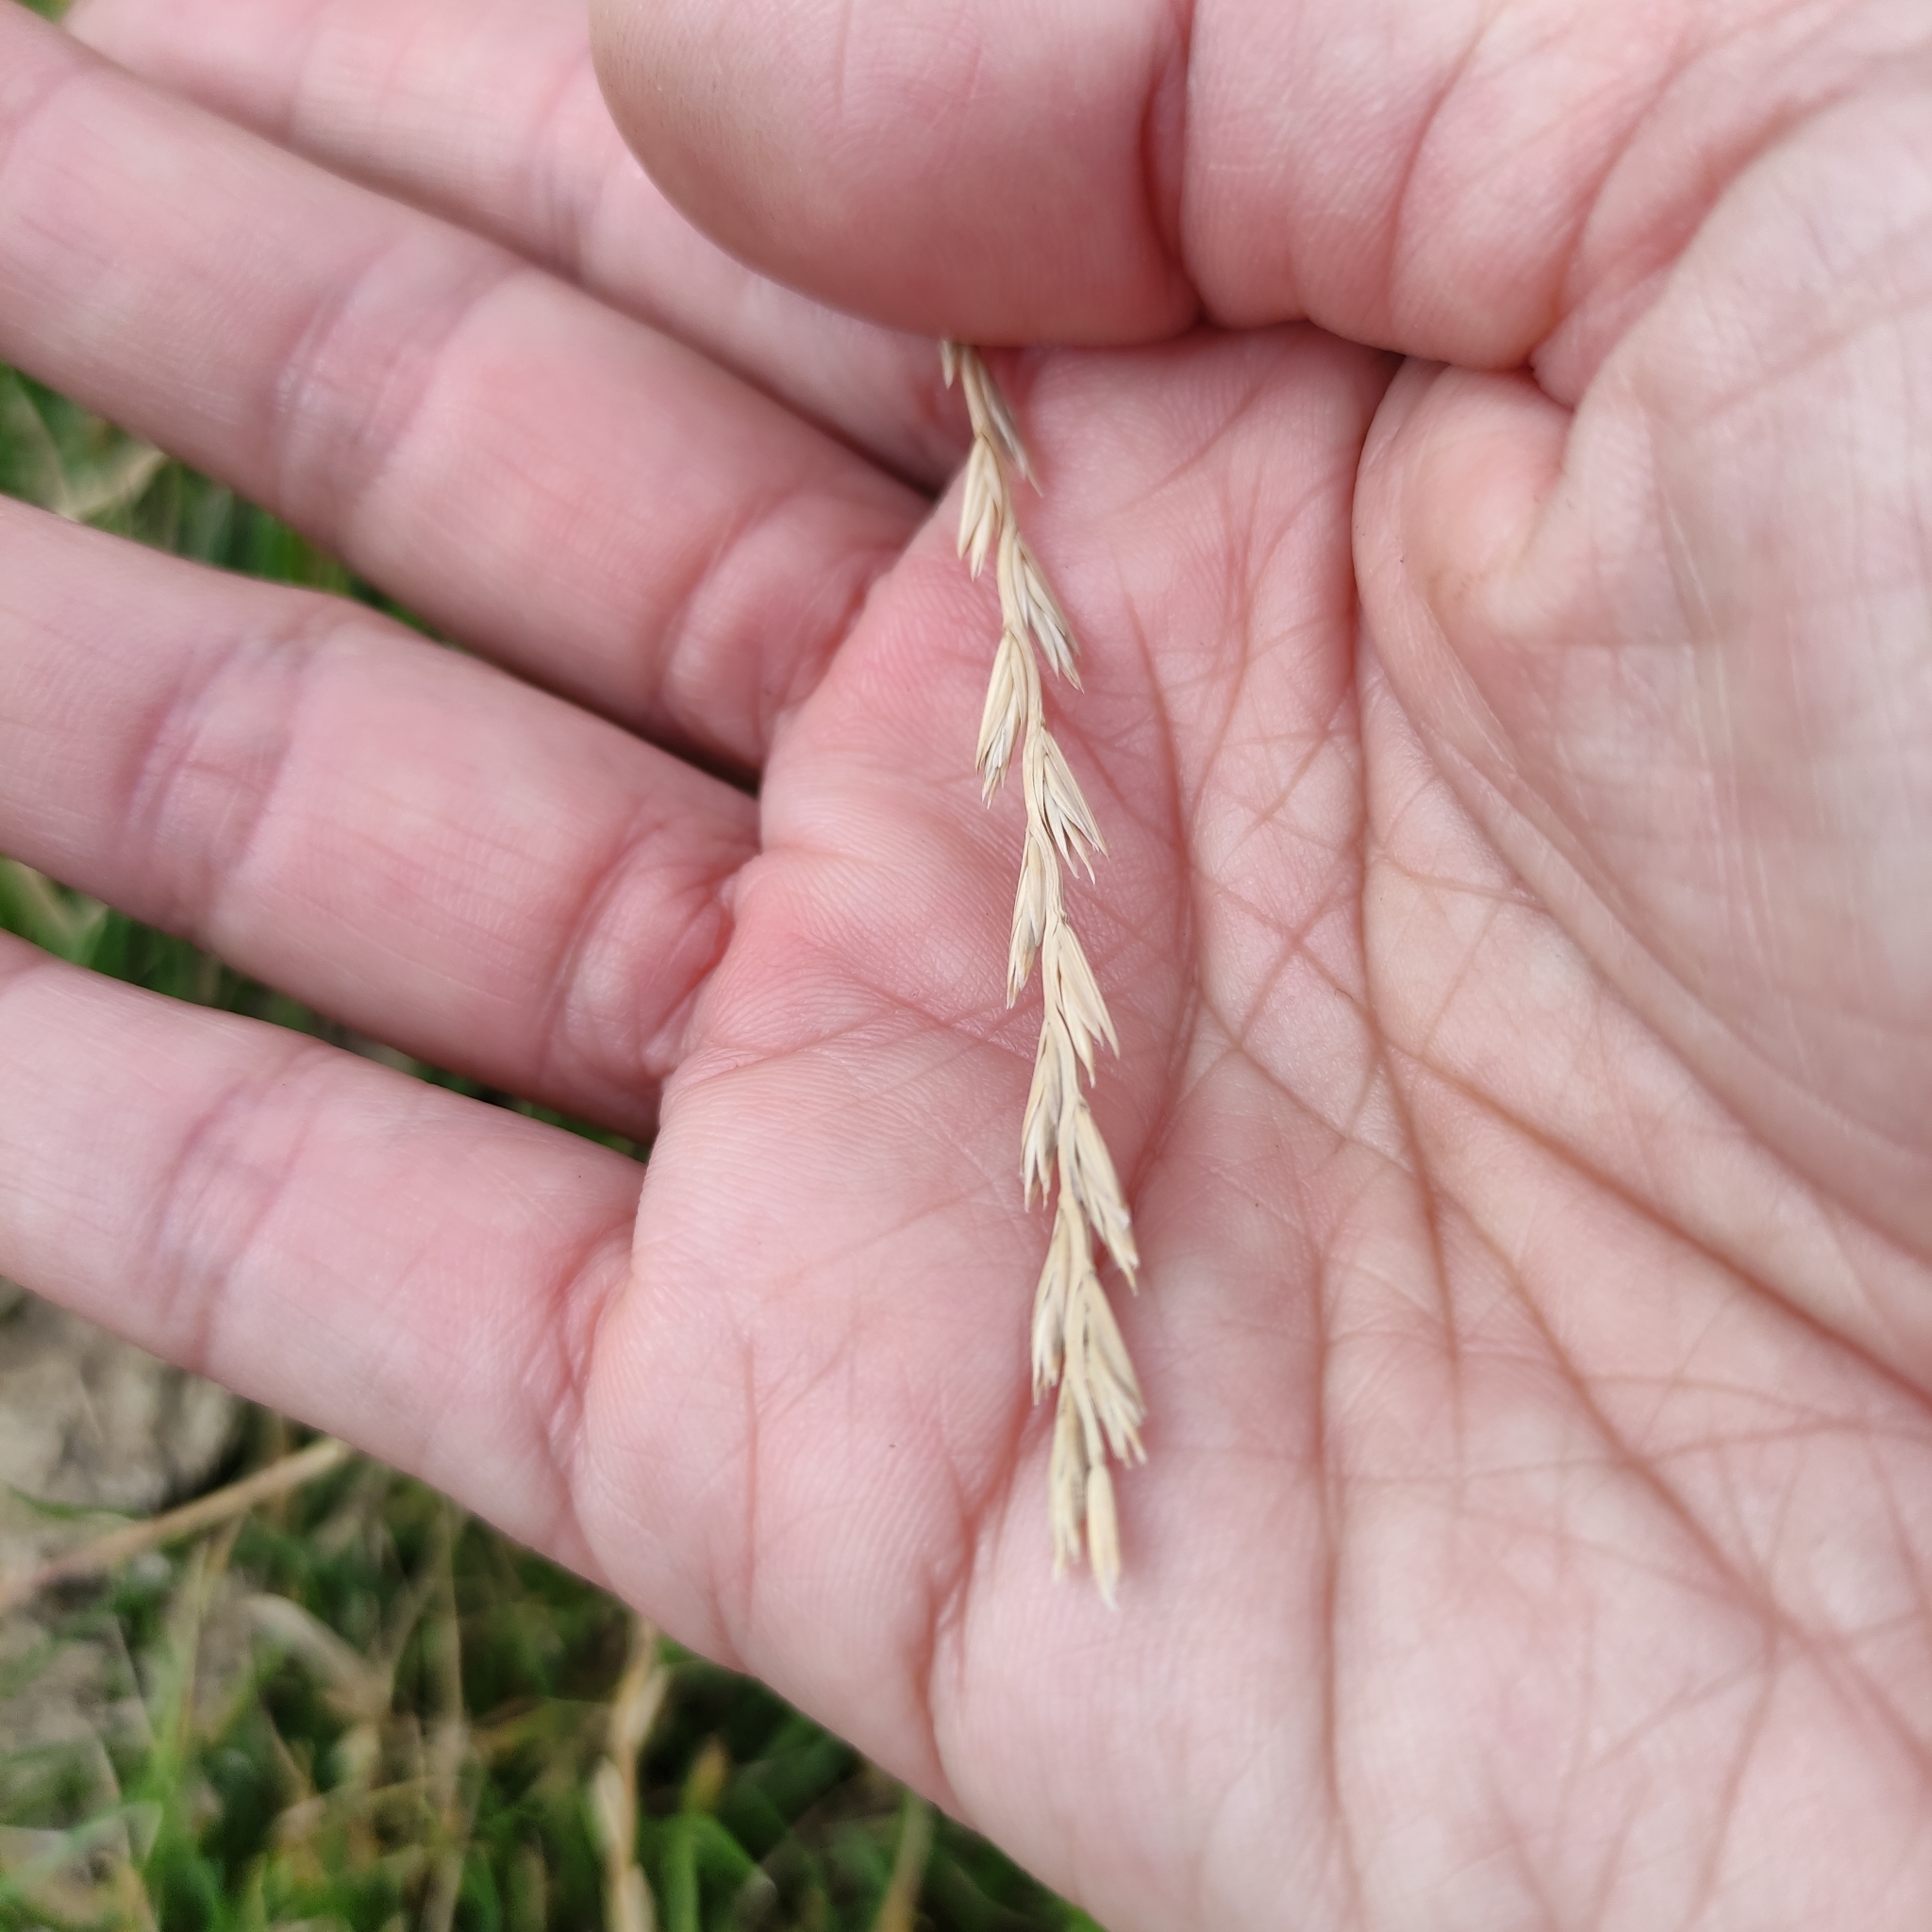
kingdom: Plantae
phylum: Tracheophyta
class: Liliopsida
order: Poales
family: Poaceae
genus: Lolium
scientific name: Lolium perenne
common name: Perennial ryegrass
